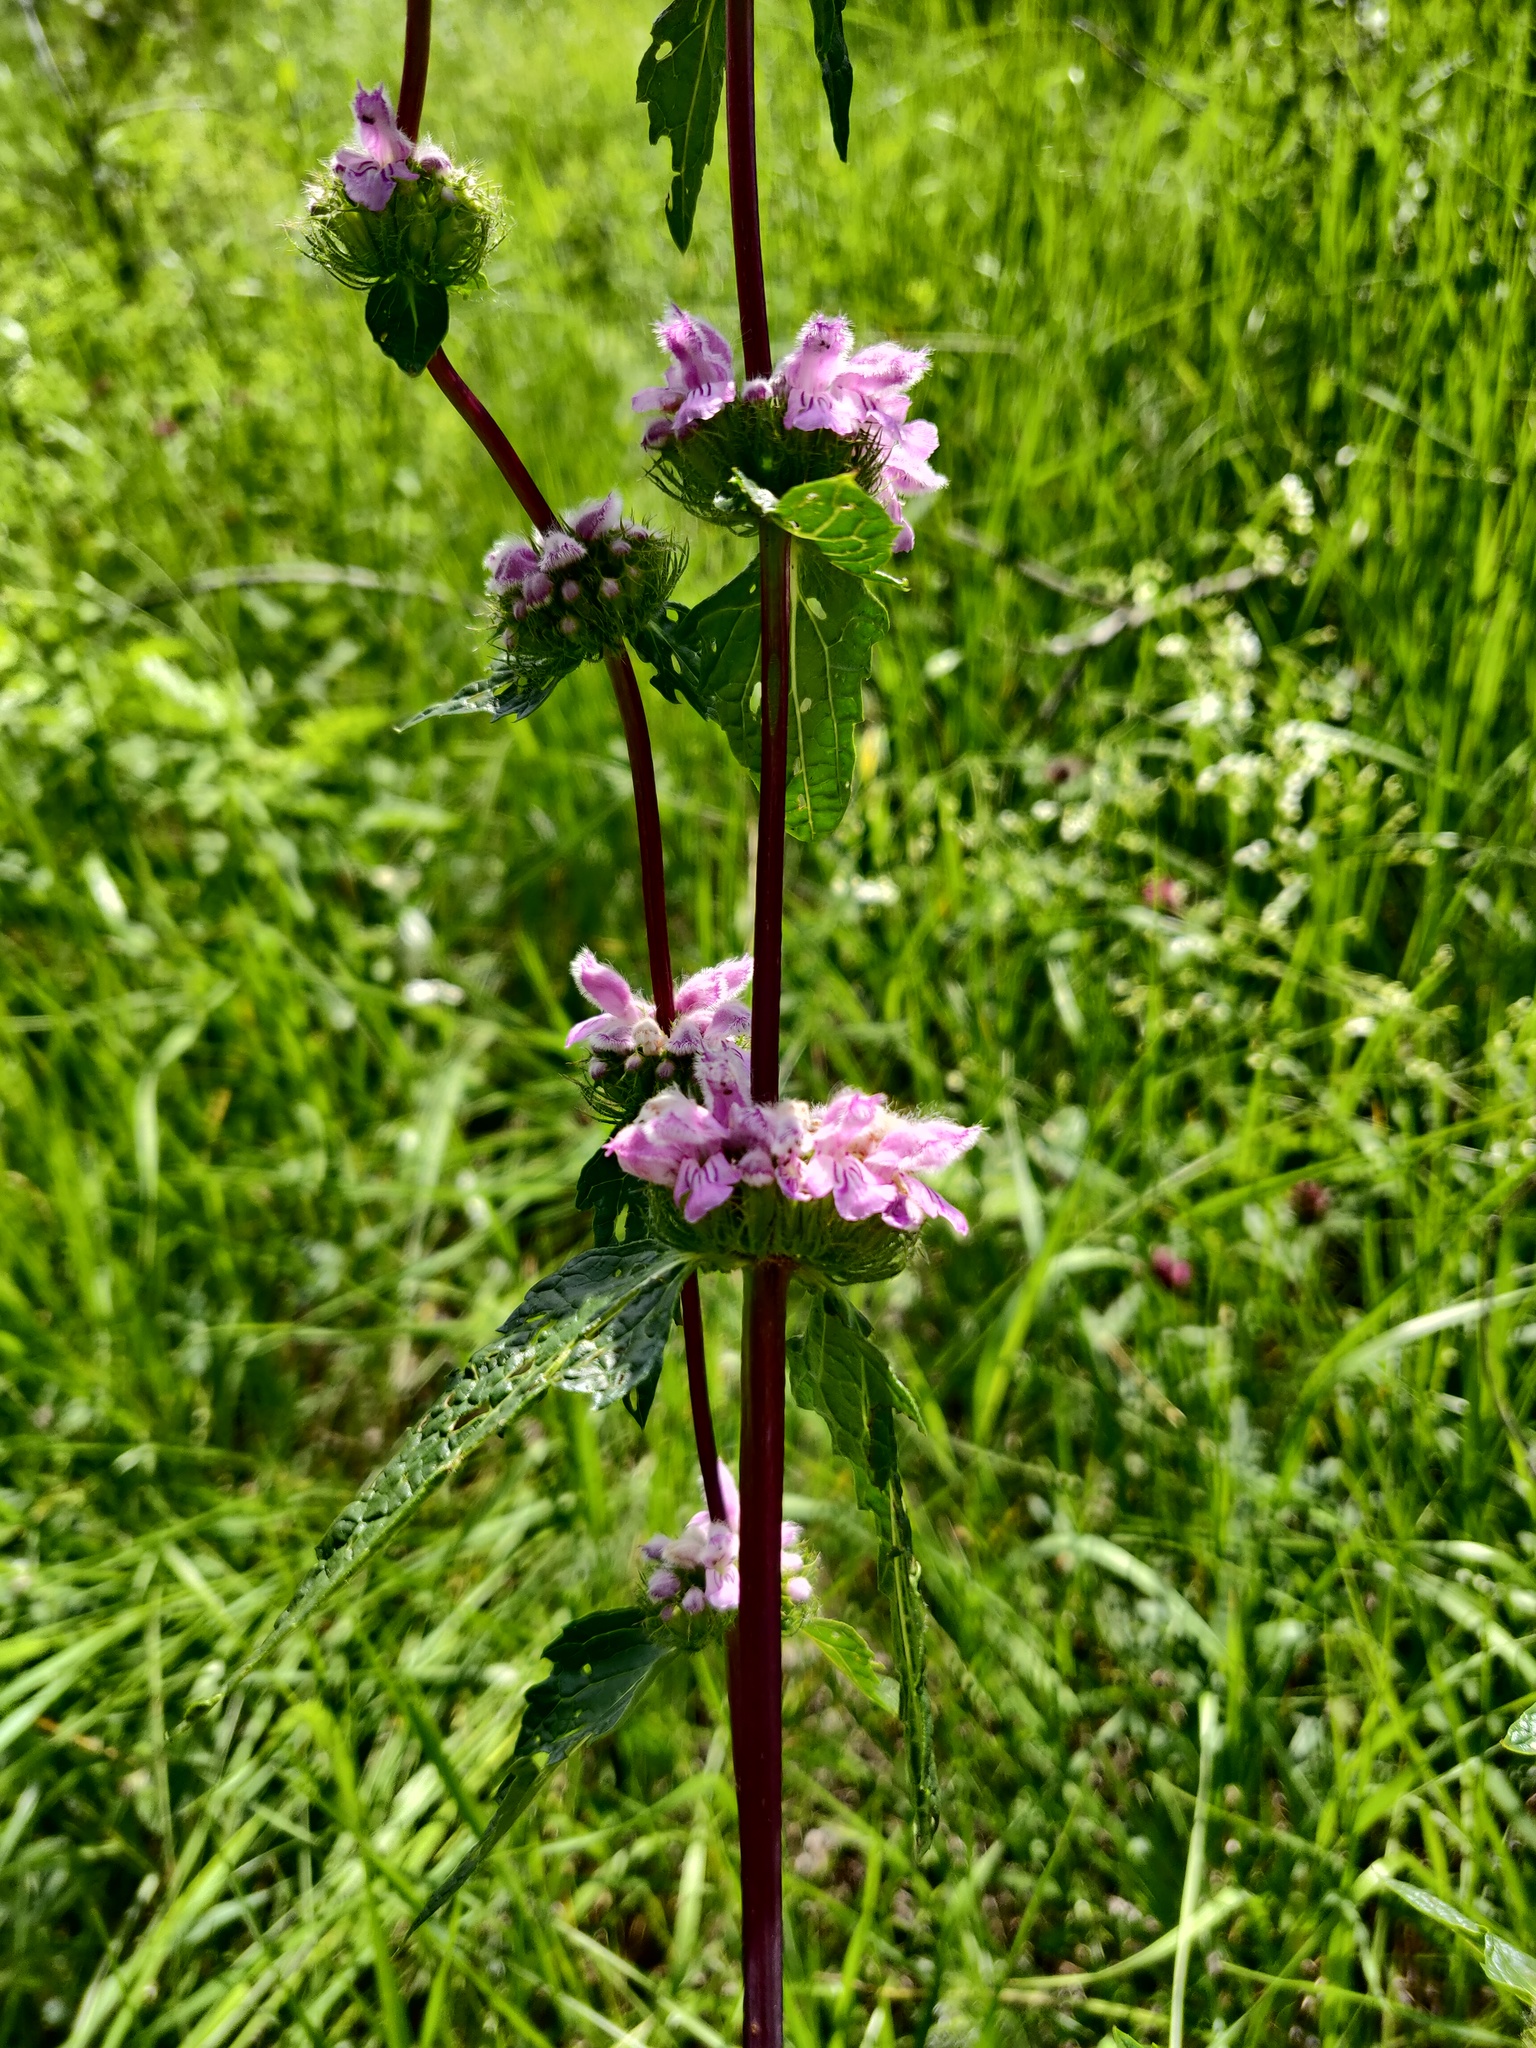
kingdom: Plantae
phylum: Tracheophyta
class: Magnoliopsida
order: Lamiales
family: Lamiaceae
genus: Phlomoides
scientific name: Phlomoides tuberosa
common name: Tuberous jerusalem sage
